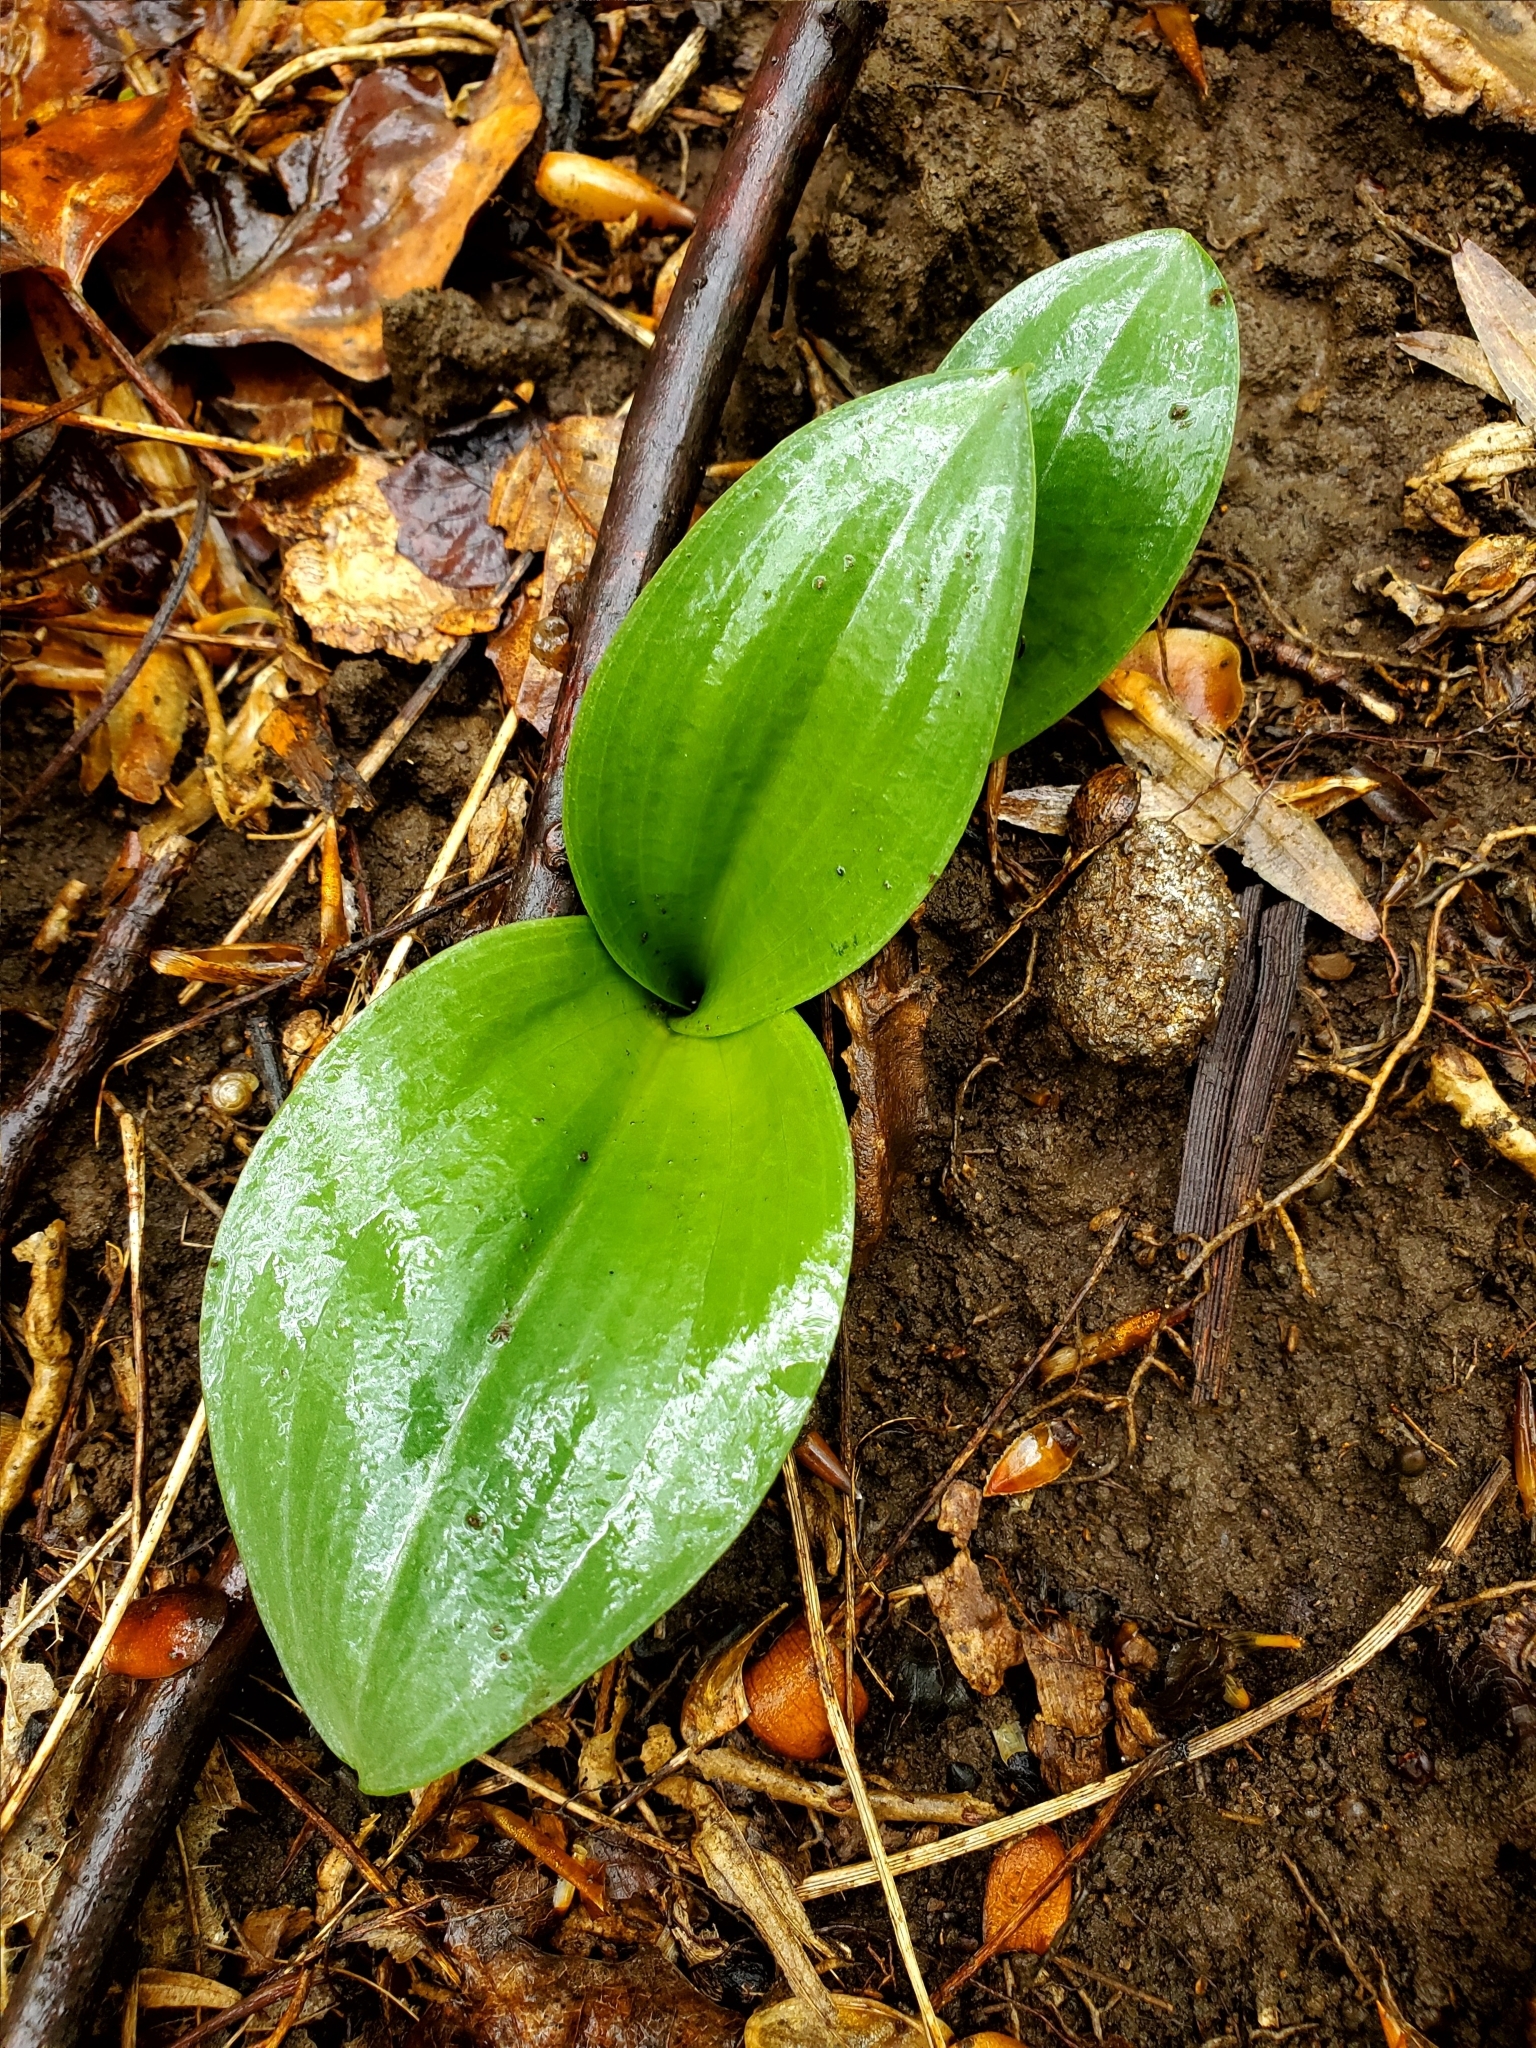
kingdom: Plantae
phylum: Tracheophyta
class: Liliopsida
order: Asparagales
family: Orchidaceae
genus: Galearis
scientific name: Galearis spectabilis
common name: Purple-hooded orchis
